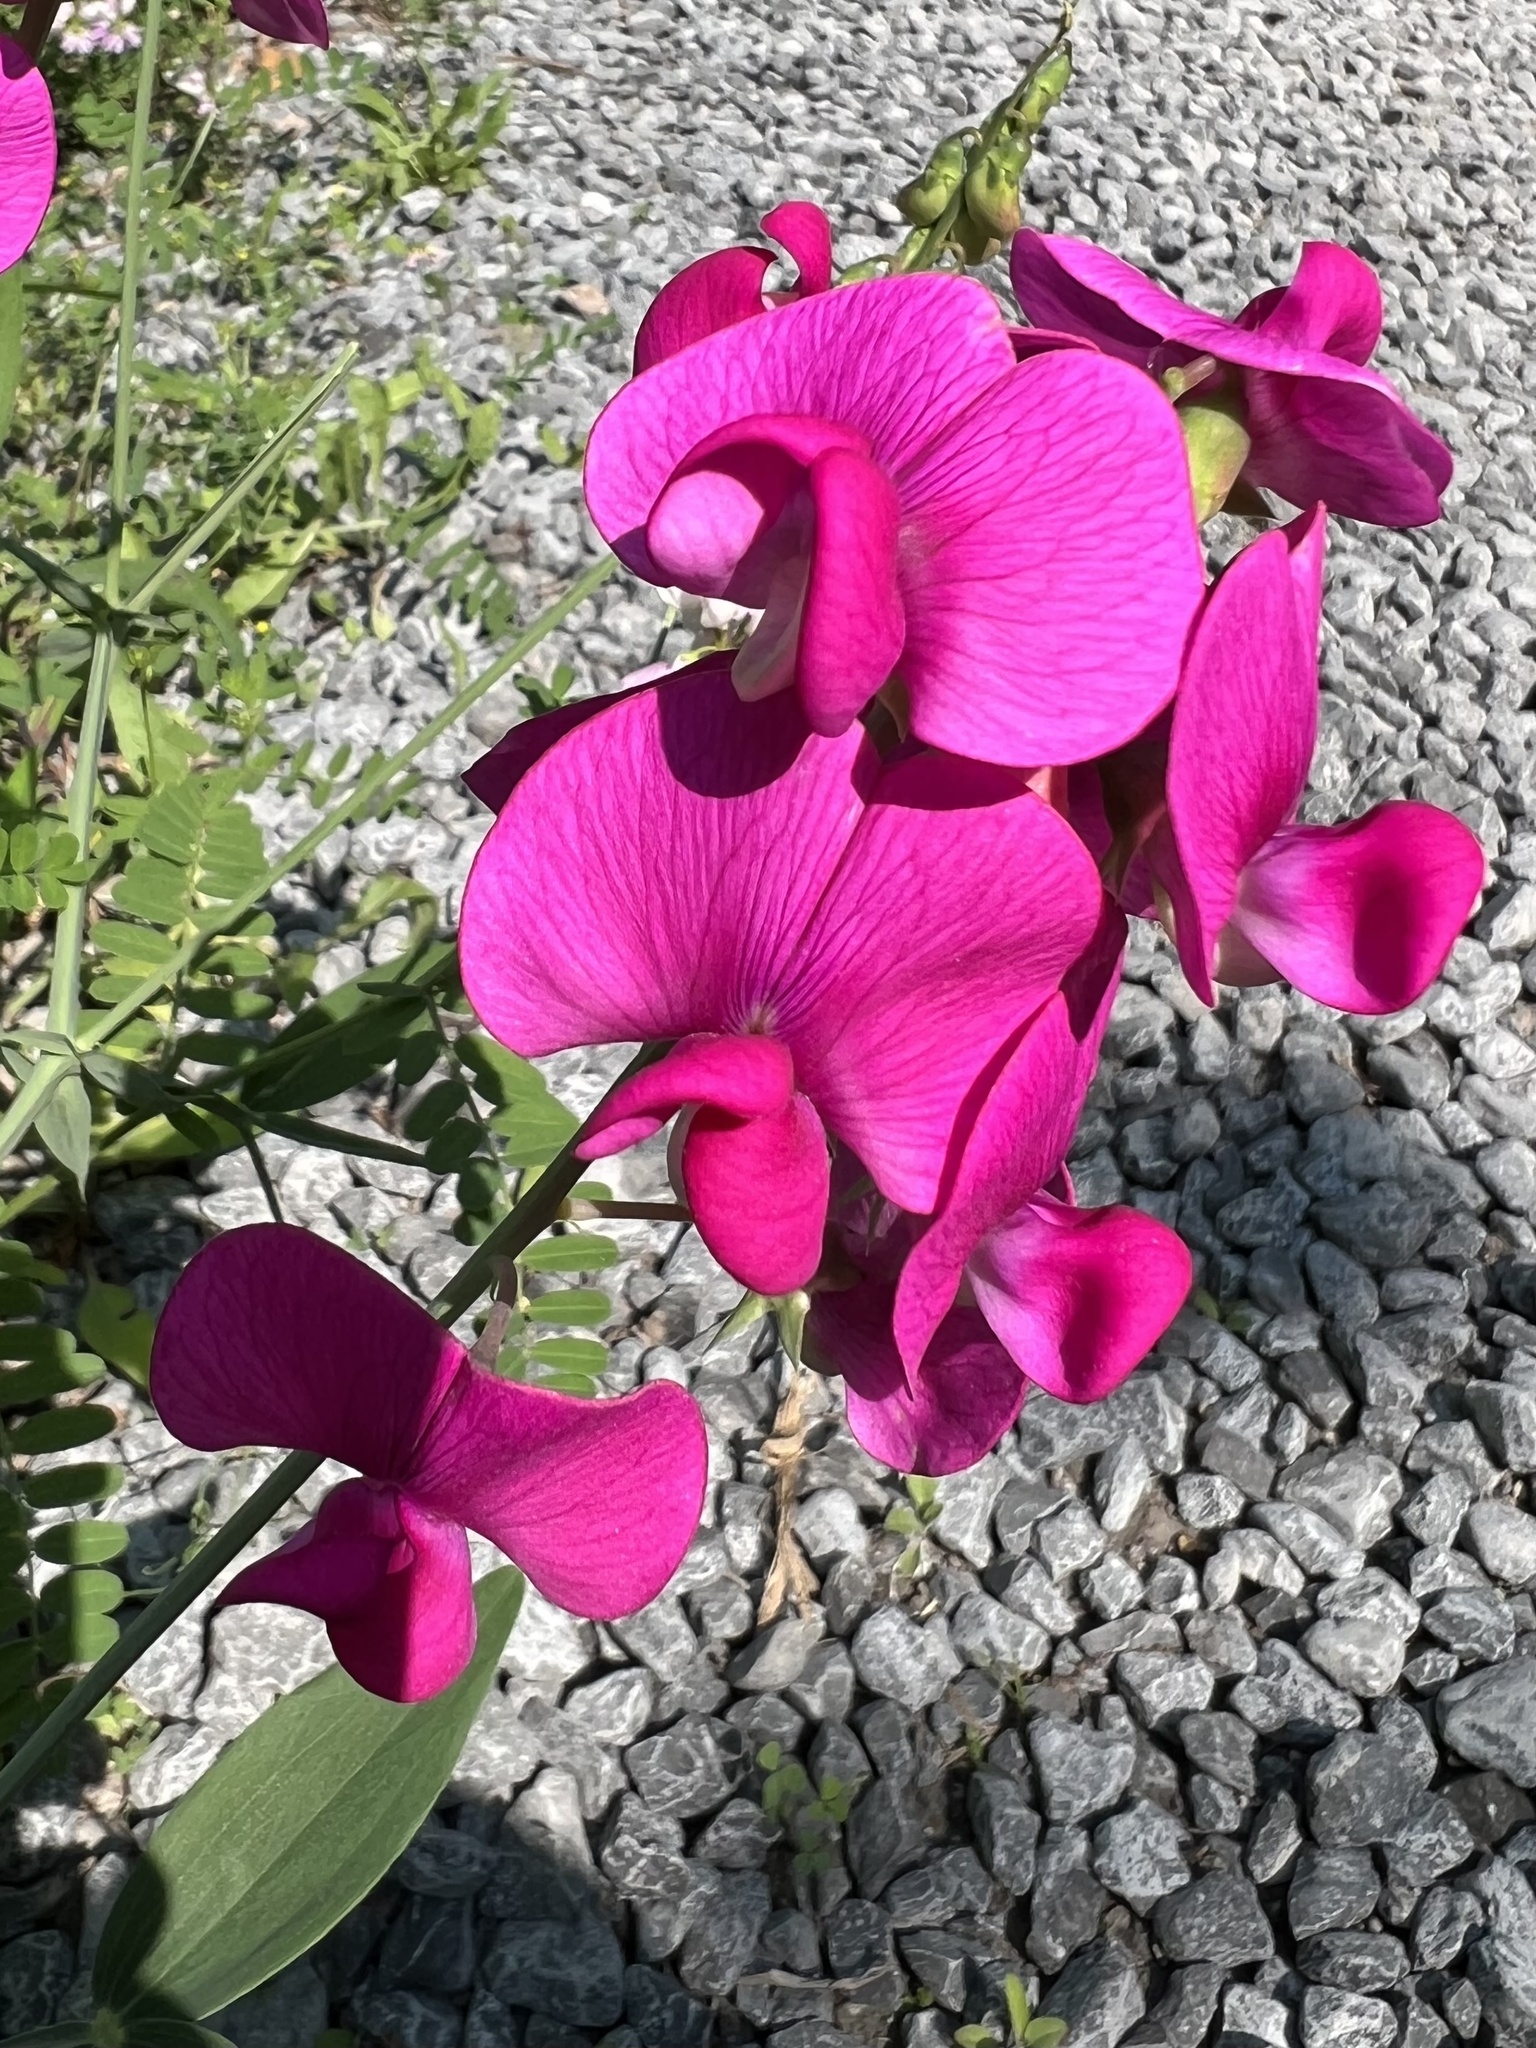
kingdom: Plantae
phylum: Tracheophyta
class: Magnoliopsida
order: Fabales
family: Fabaceae
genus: Lathyrus
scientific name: Lathyrus latifolius
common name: Perennial pea
